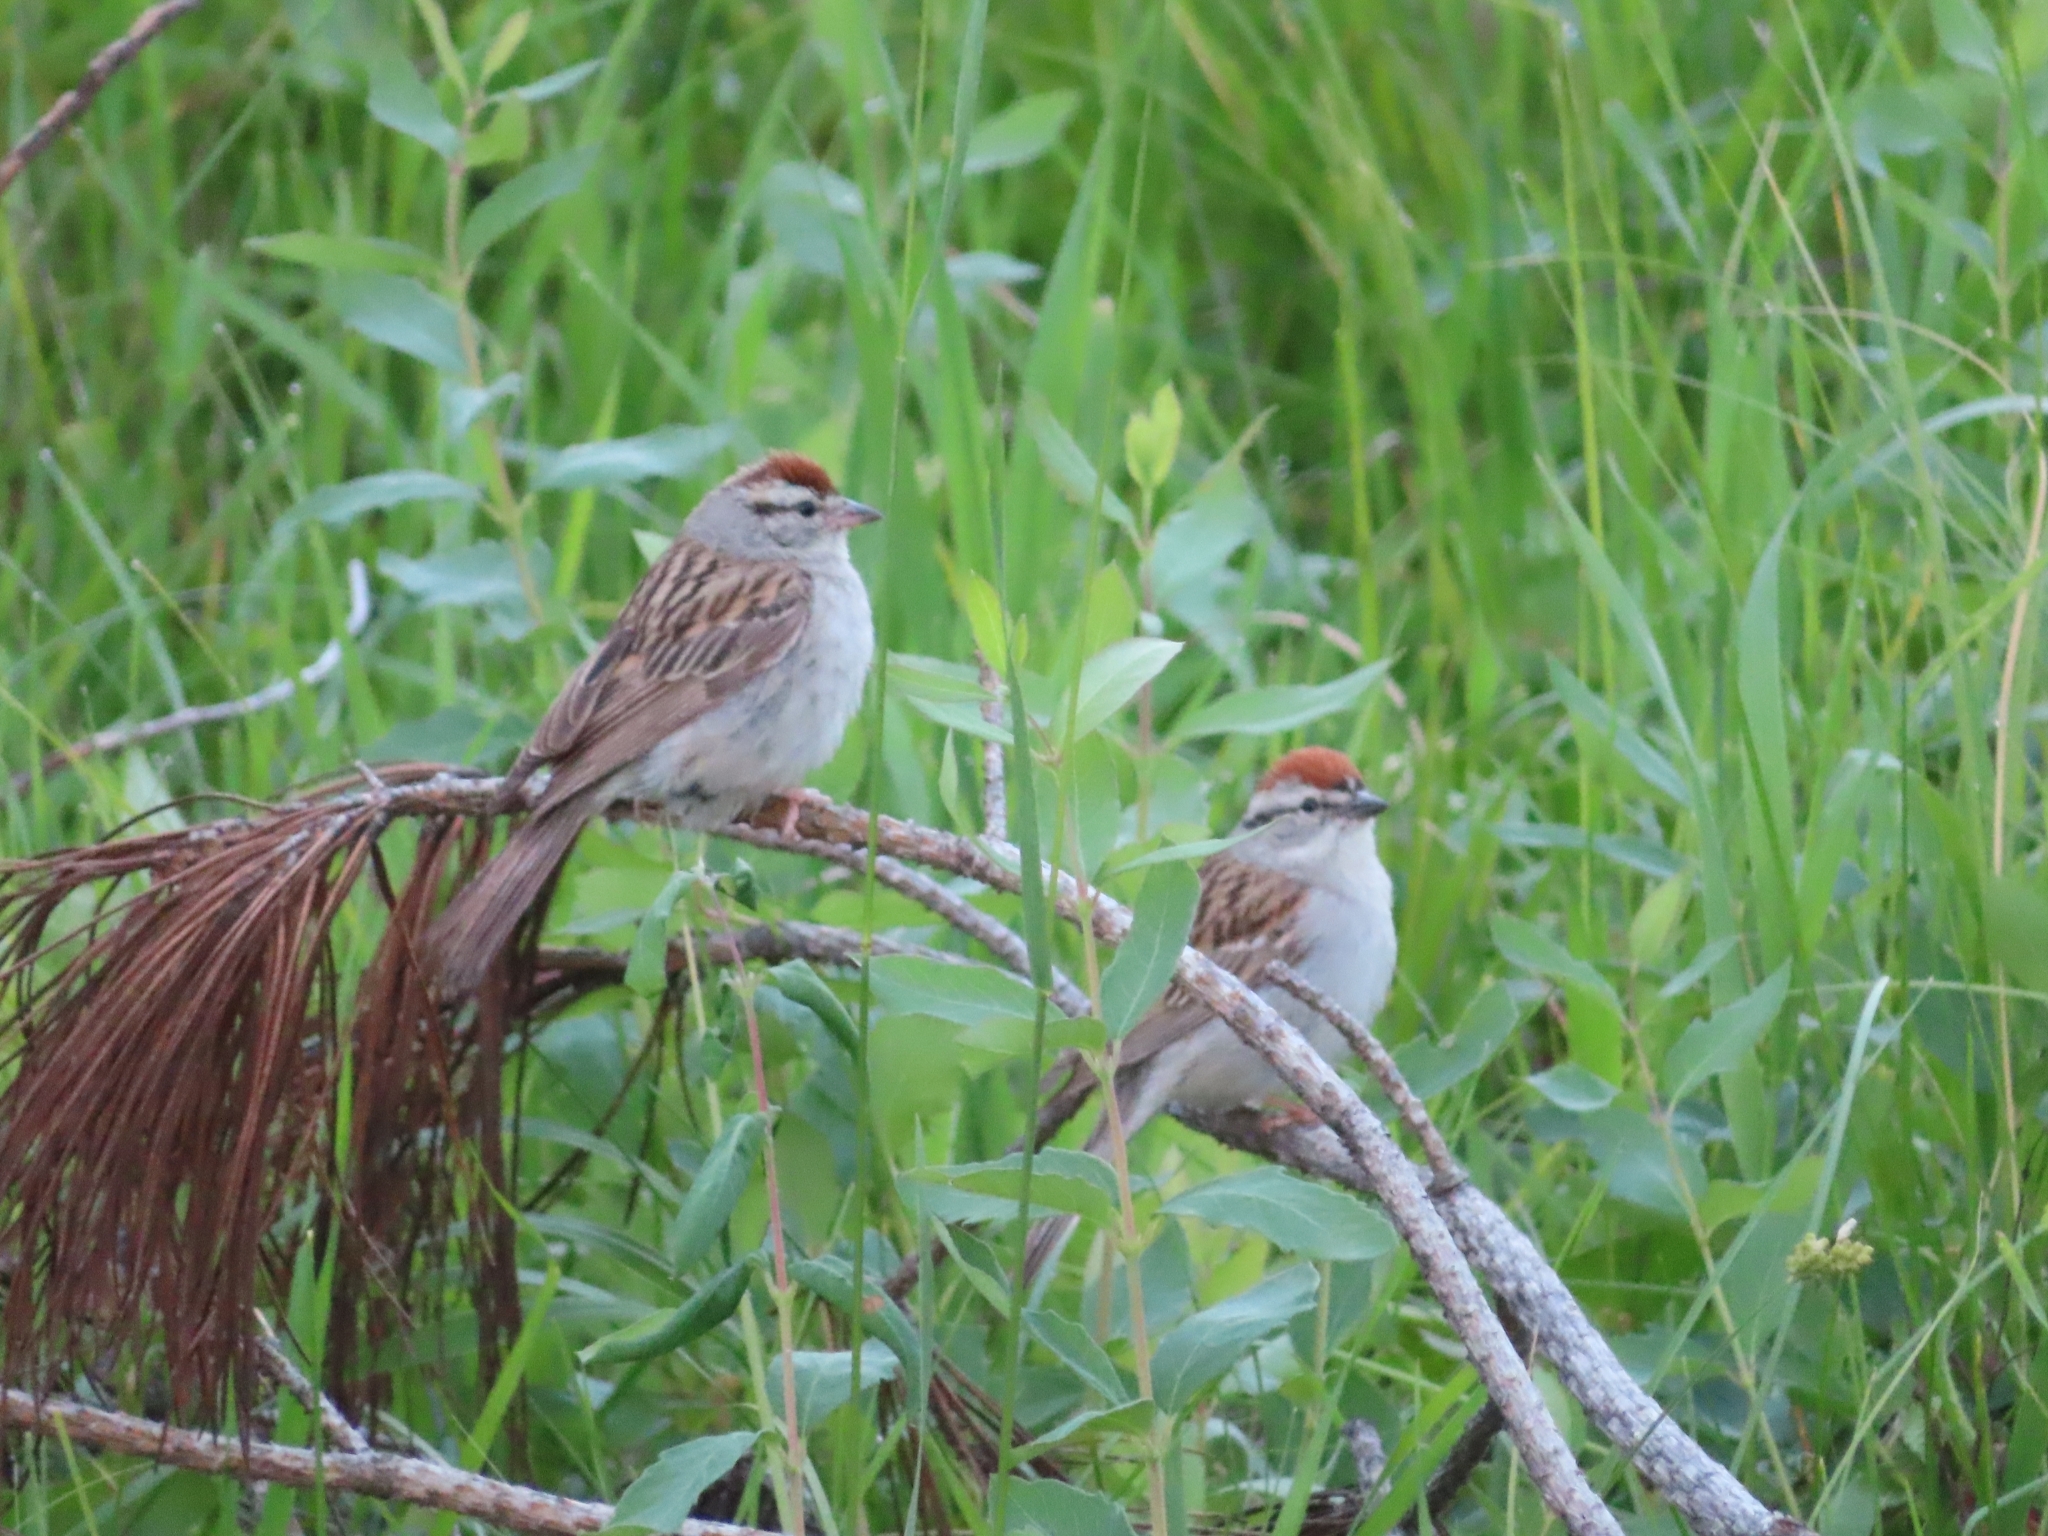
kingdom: Animalia
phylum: Chordata
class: Aves
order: Passeriformes
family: Passerellidae
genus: Spizella
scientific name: Spizella passerina
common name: Chipping sparrow
